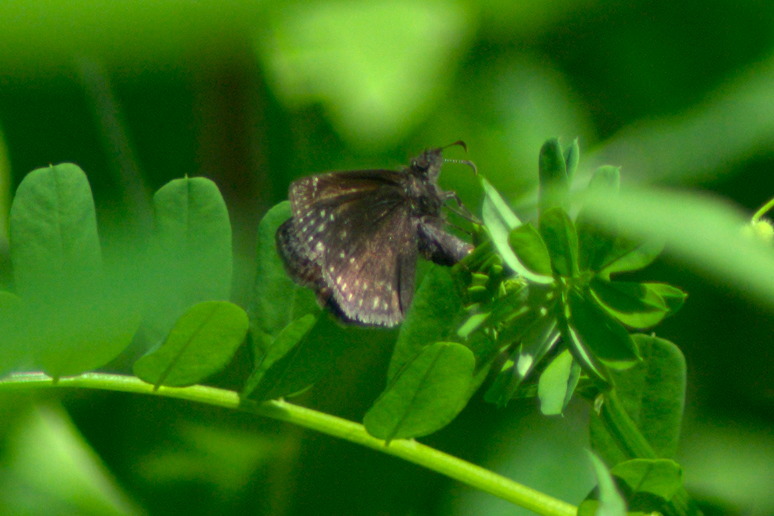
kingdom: Animalia
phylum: Arthropoda
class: Insecta
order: Lepidoptera
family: Hesperiidae
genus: Erynnis
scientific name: Erynnis baptisiae
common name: Wild indigo duskywing
